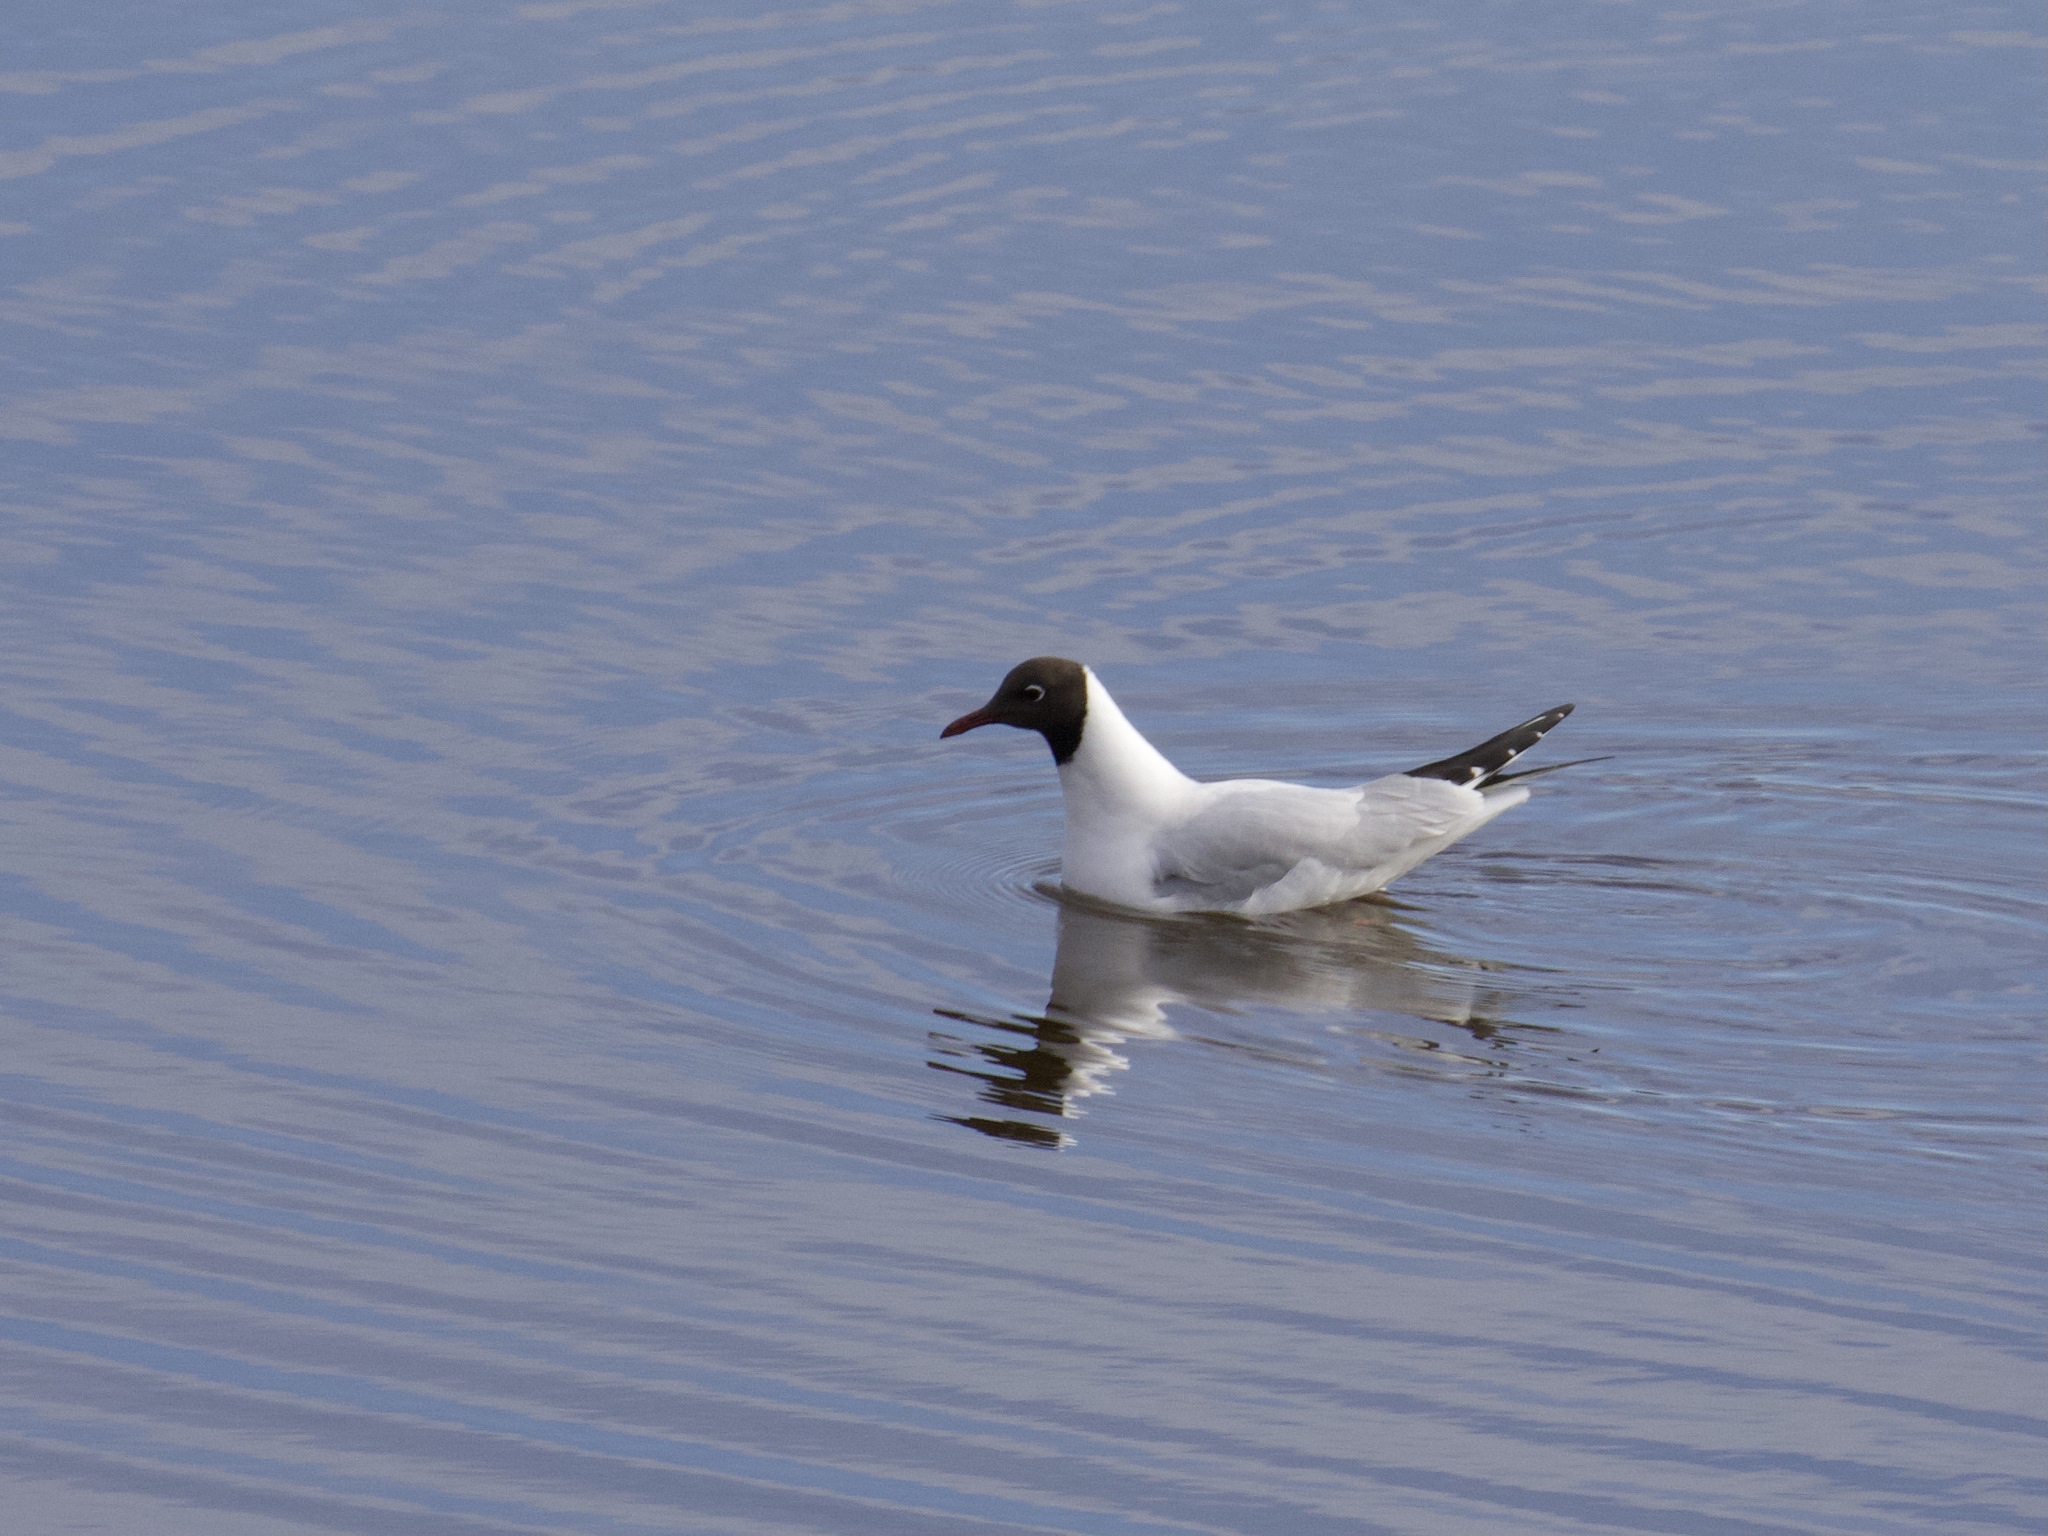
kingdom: Animalia
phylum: Chordata
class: Aves
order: Charadriiformes
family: Laridae
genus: Chroicocephalus
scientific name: Chroicocephalus ridibundus
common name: Black-headed gull
